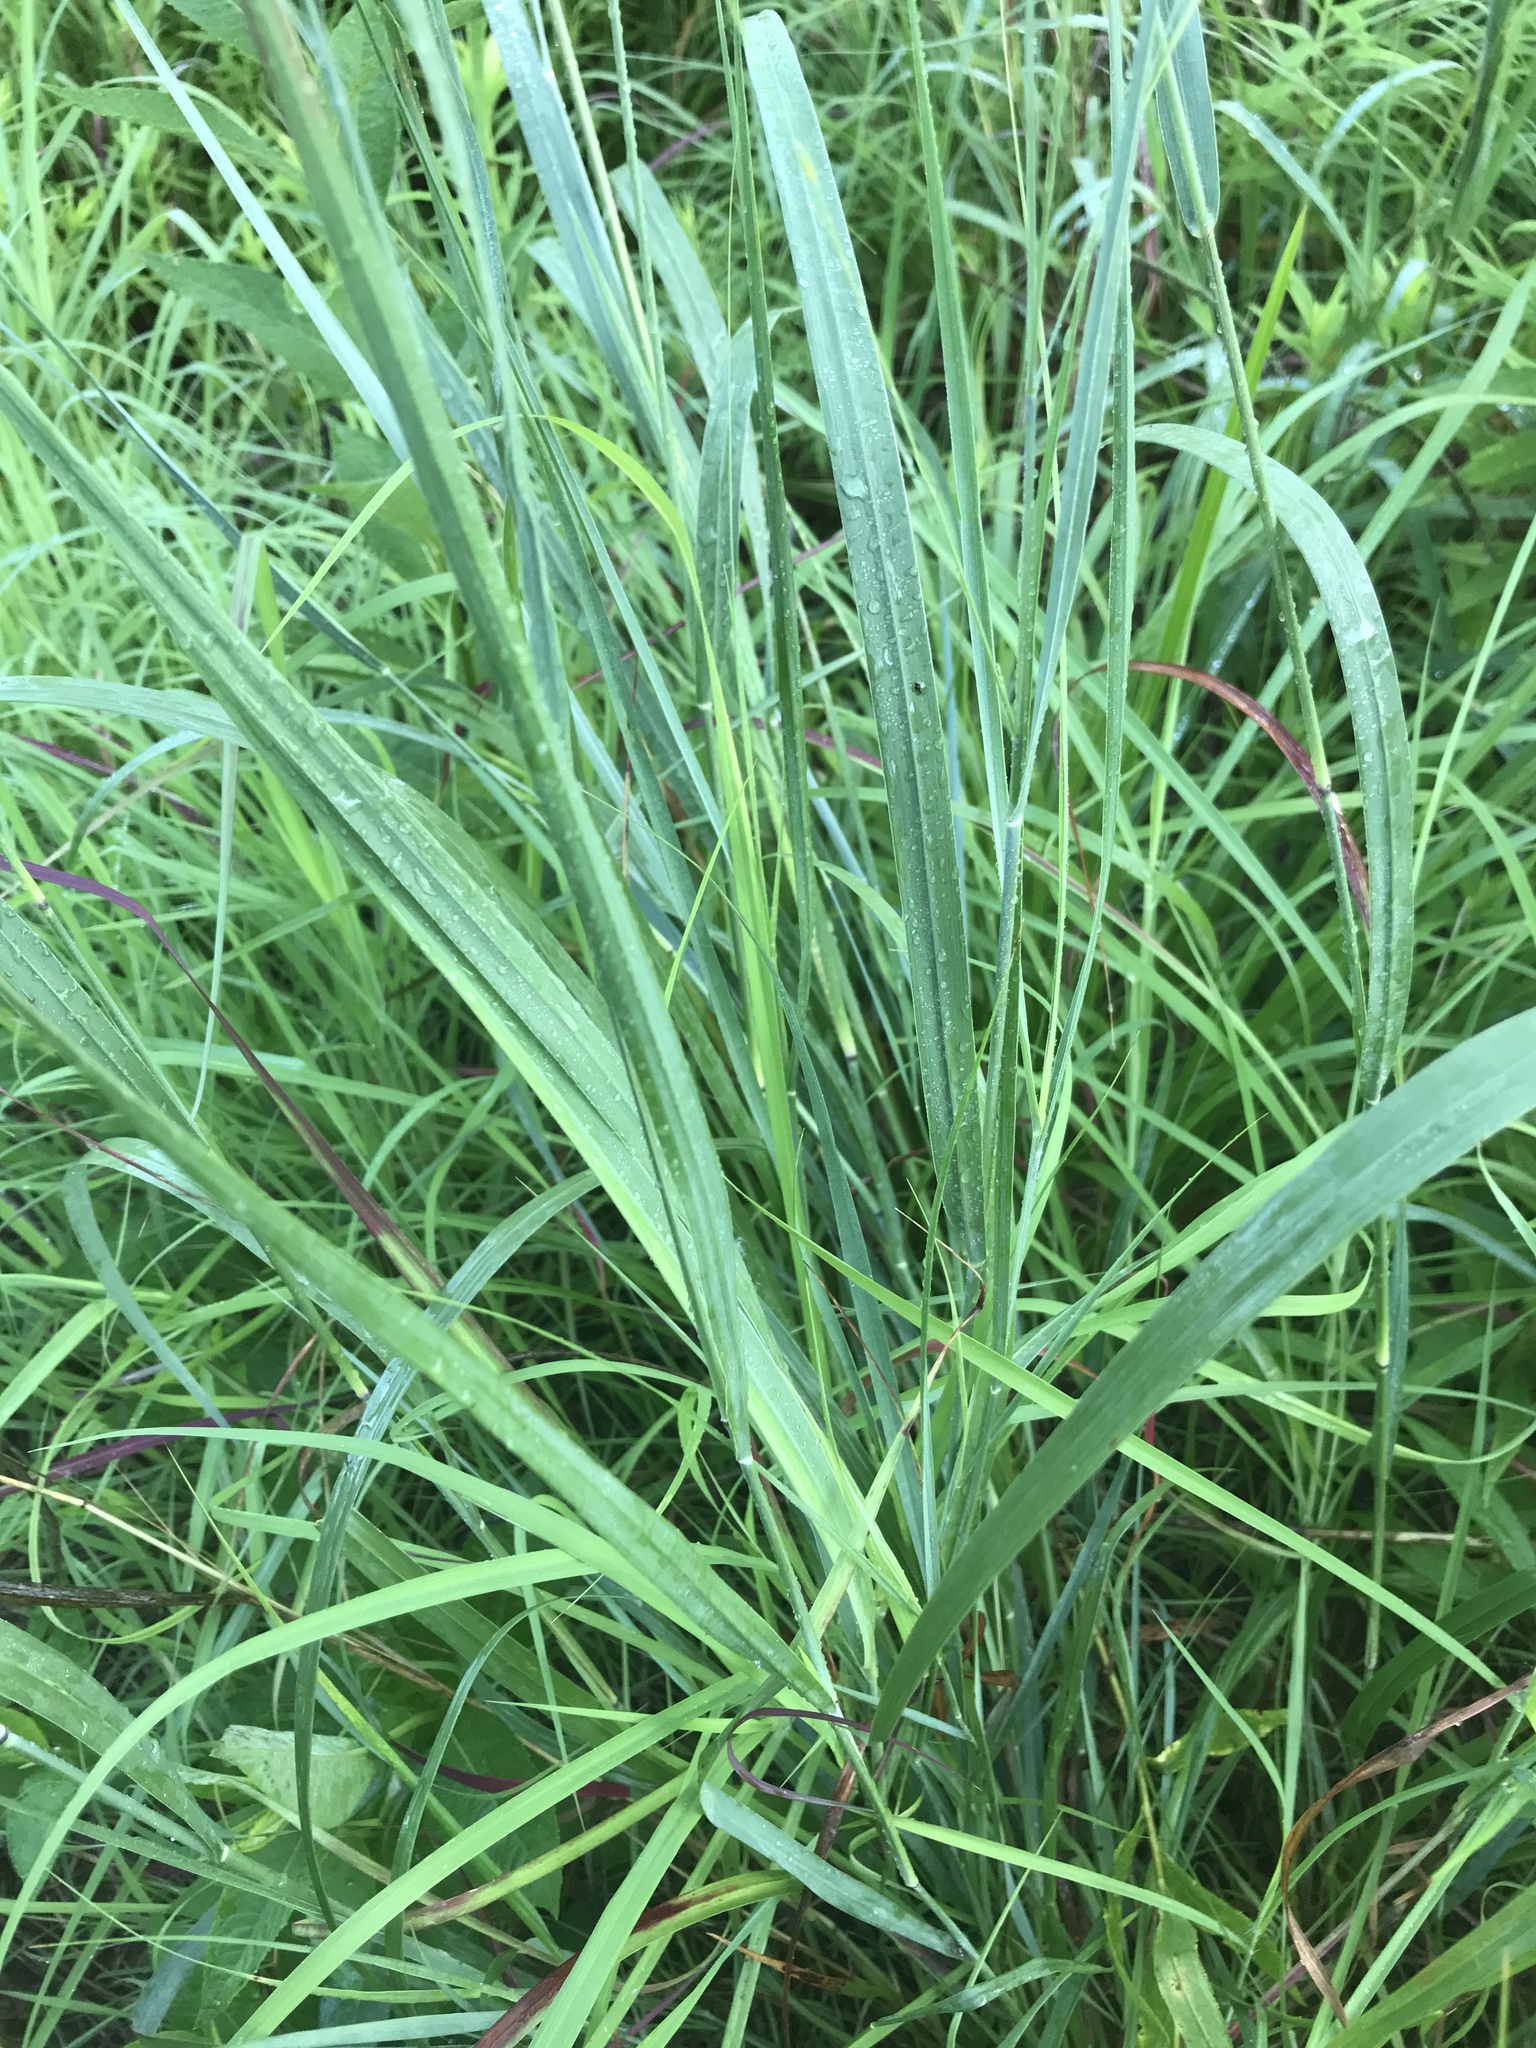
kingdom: Plantae
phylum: Tracheophyta
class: Liliopsida
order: Poales
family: Poaceae
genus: Panicum
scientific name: Panicum virgatum
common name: Switchgrass
